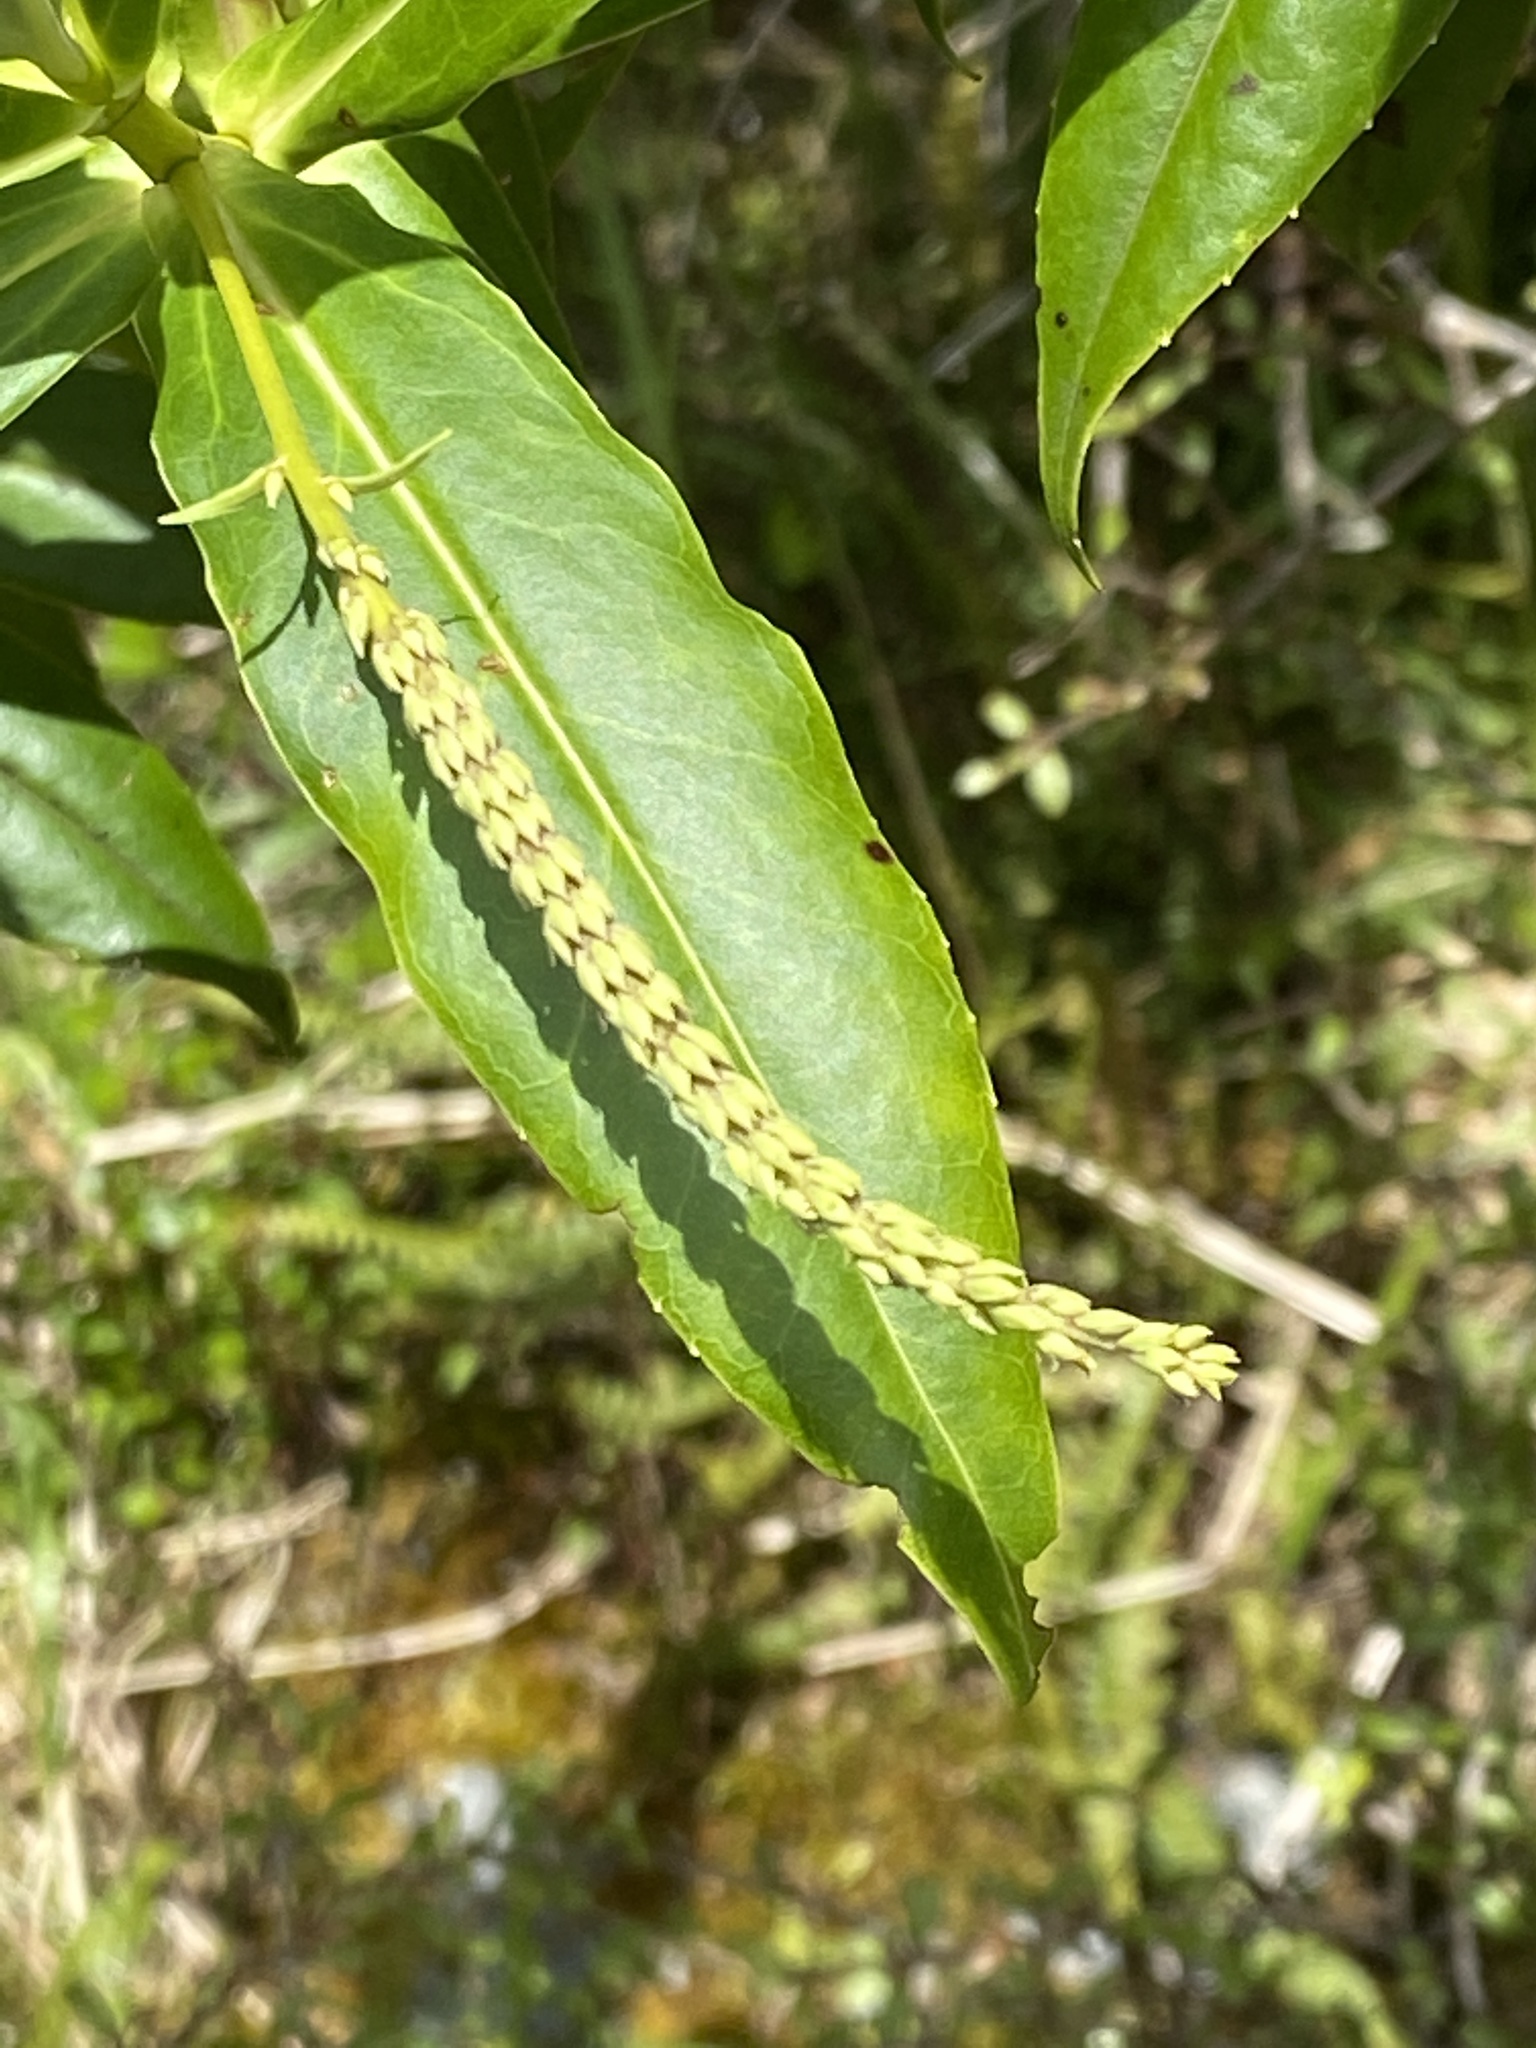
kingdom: Plantae
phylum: Tracheophyta
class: Magnoliopsida
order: Lamiales
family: Plantaginaceae
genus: Veronica
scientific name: Veronica salicifolia
